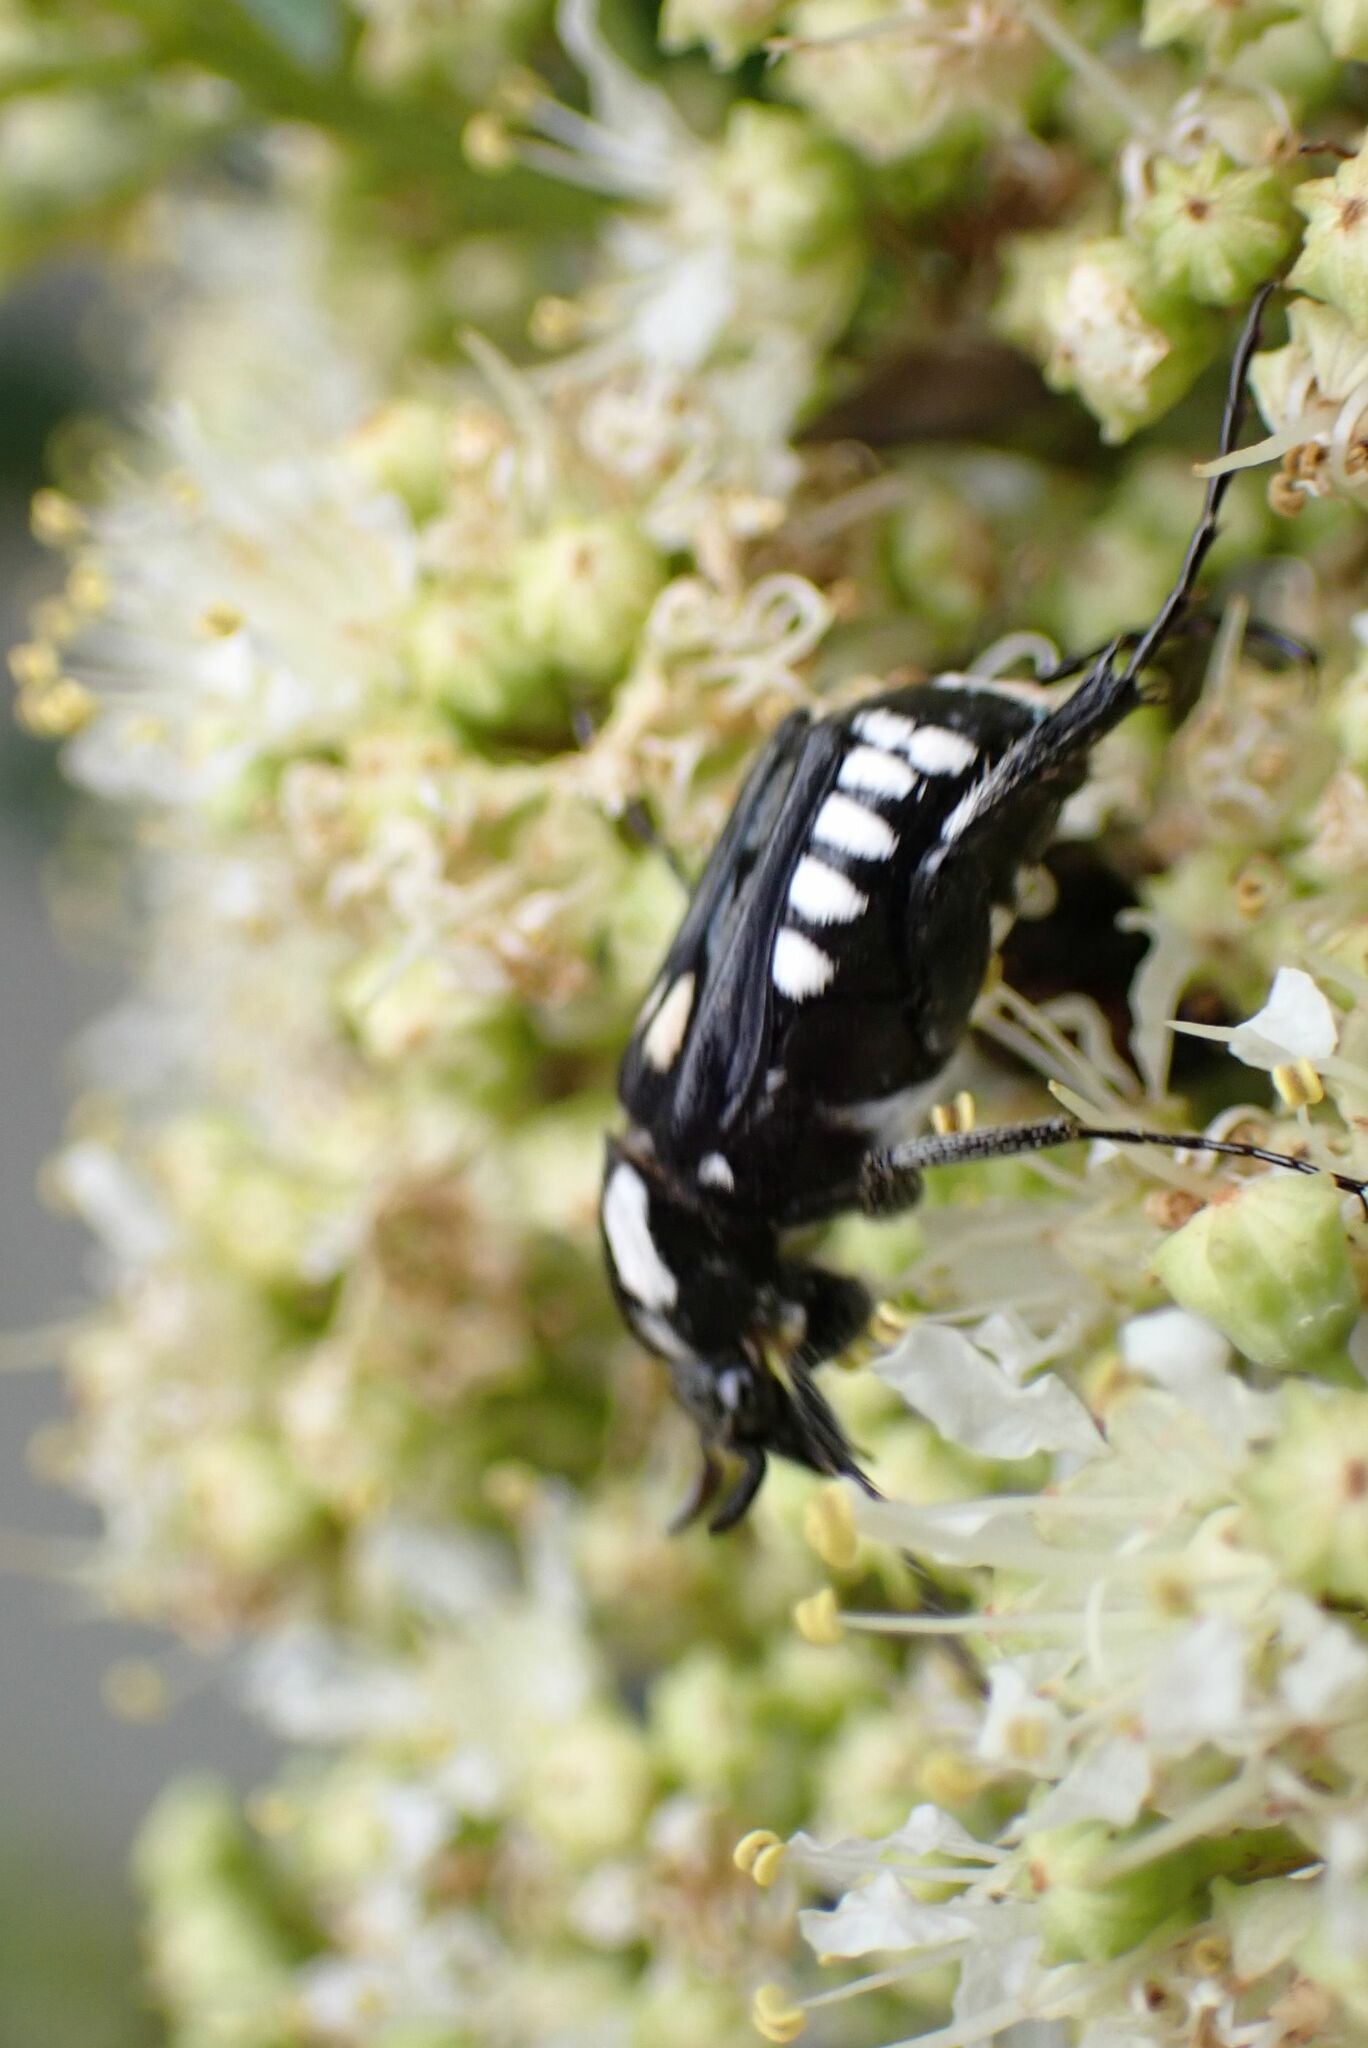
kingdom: Animalia
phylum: Arthropoda
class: Insecta
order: Coleoptera
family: Scarabaeidae
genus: Calometopus
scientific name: Calometopus nyassae
